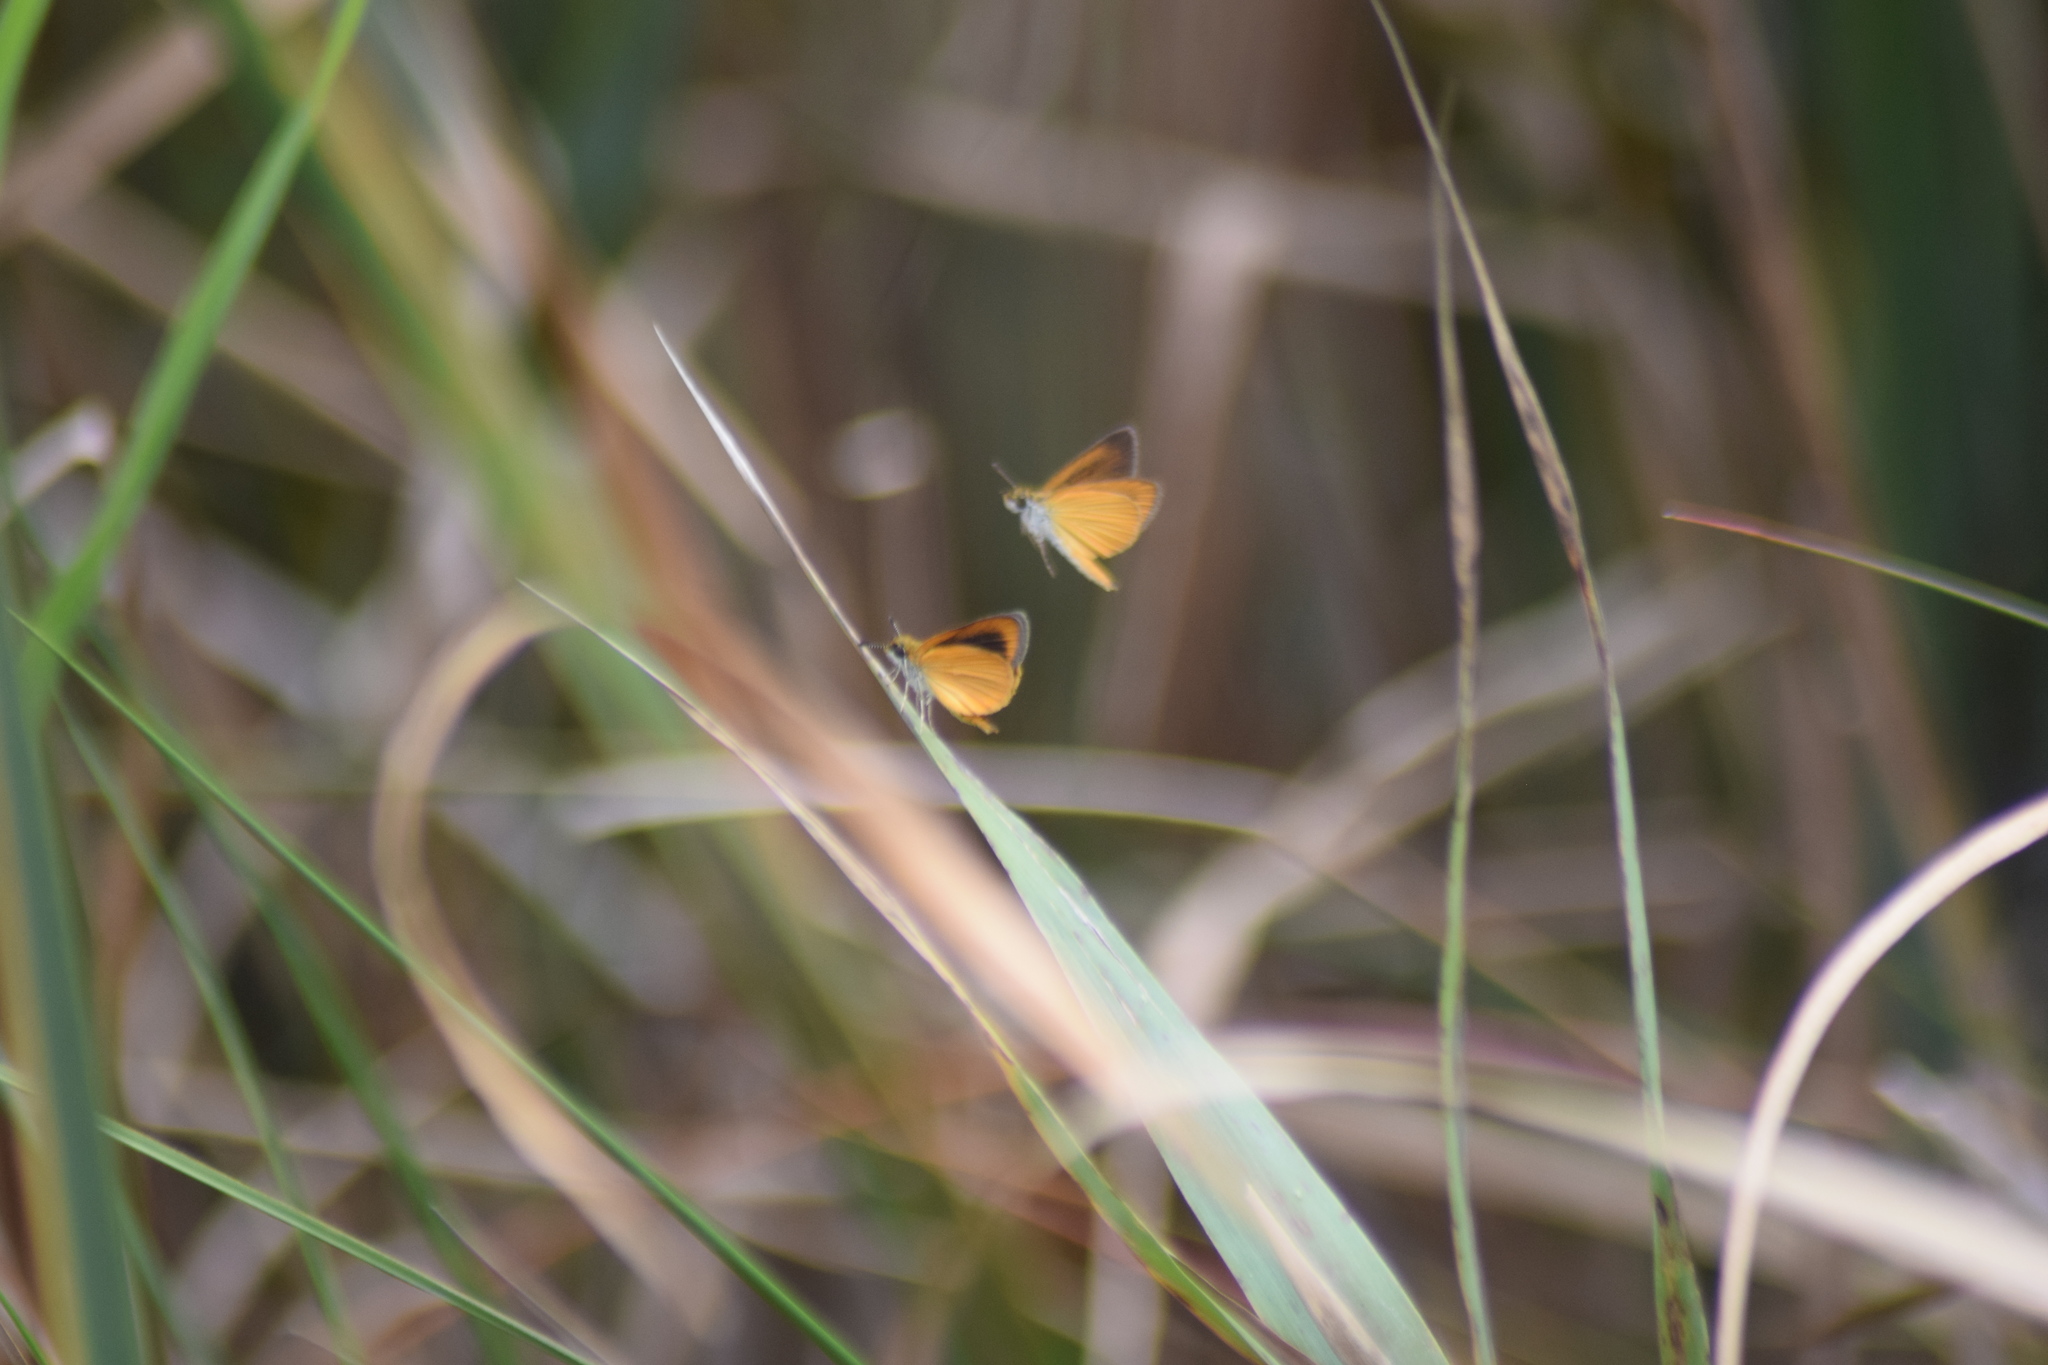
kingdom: Animalia
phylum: Arthropoda
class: Insecta
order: Lepidoptera
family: Hesperiidae
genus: Ancyloxypha
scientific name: Ancyloxypha numitor
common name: Least skipper
